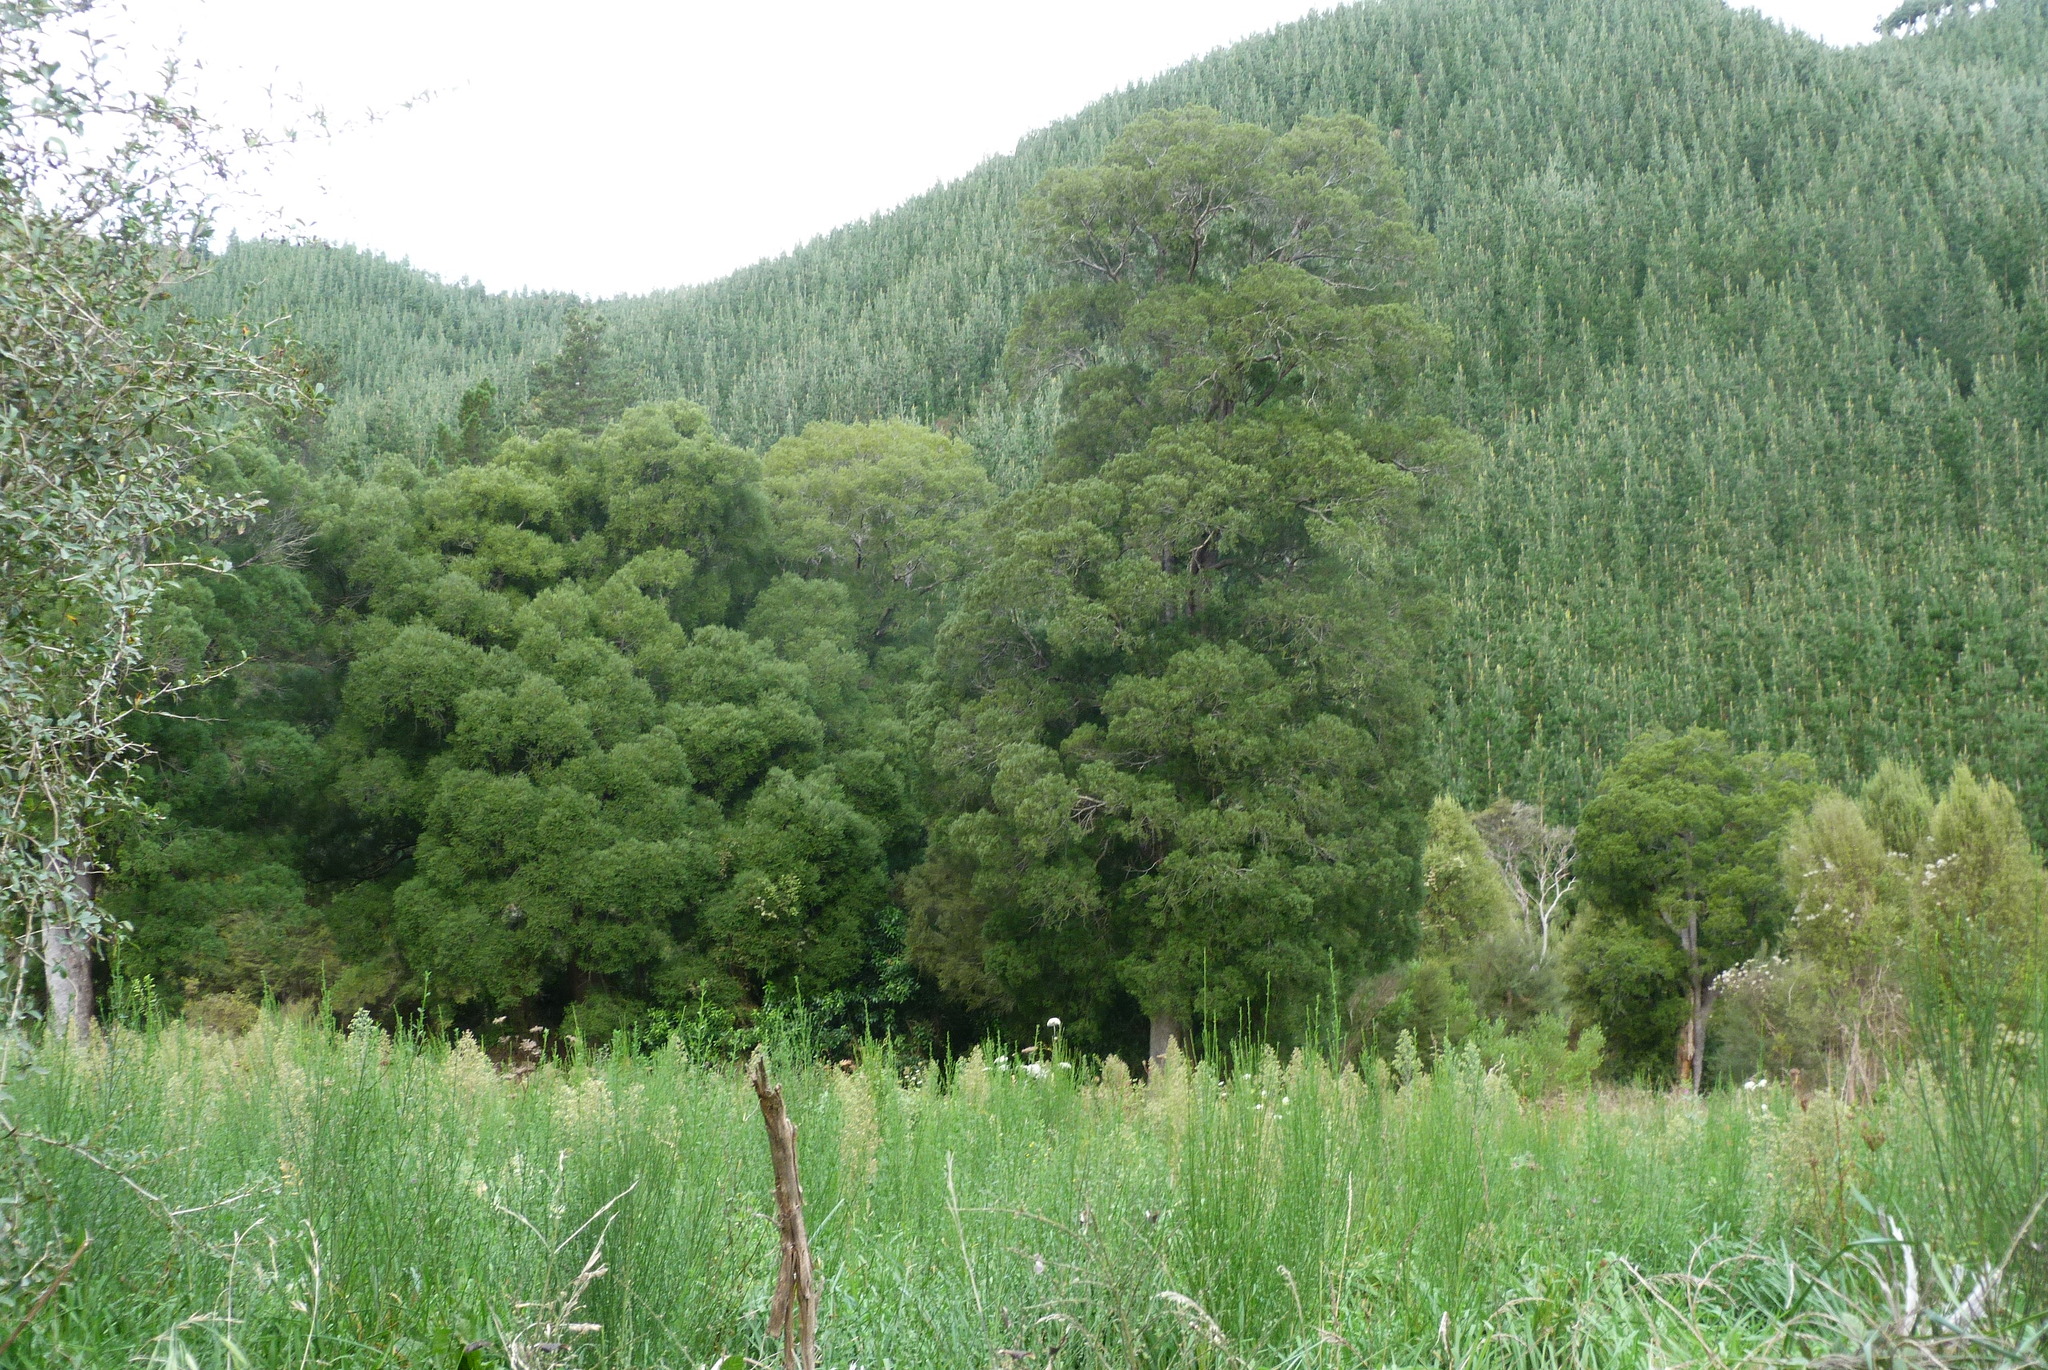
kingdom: Plantae
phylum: Tracheophyta
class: Pinopsida
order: Pinales
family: Podocarpaceae
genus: Dacrycarpus
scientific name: Dacrycarpus dacrydioides
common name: White pine
